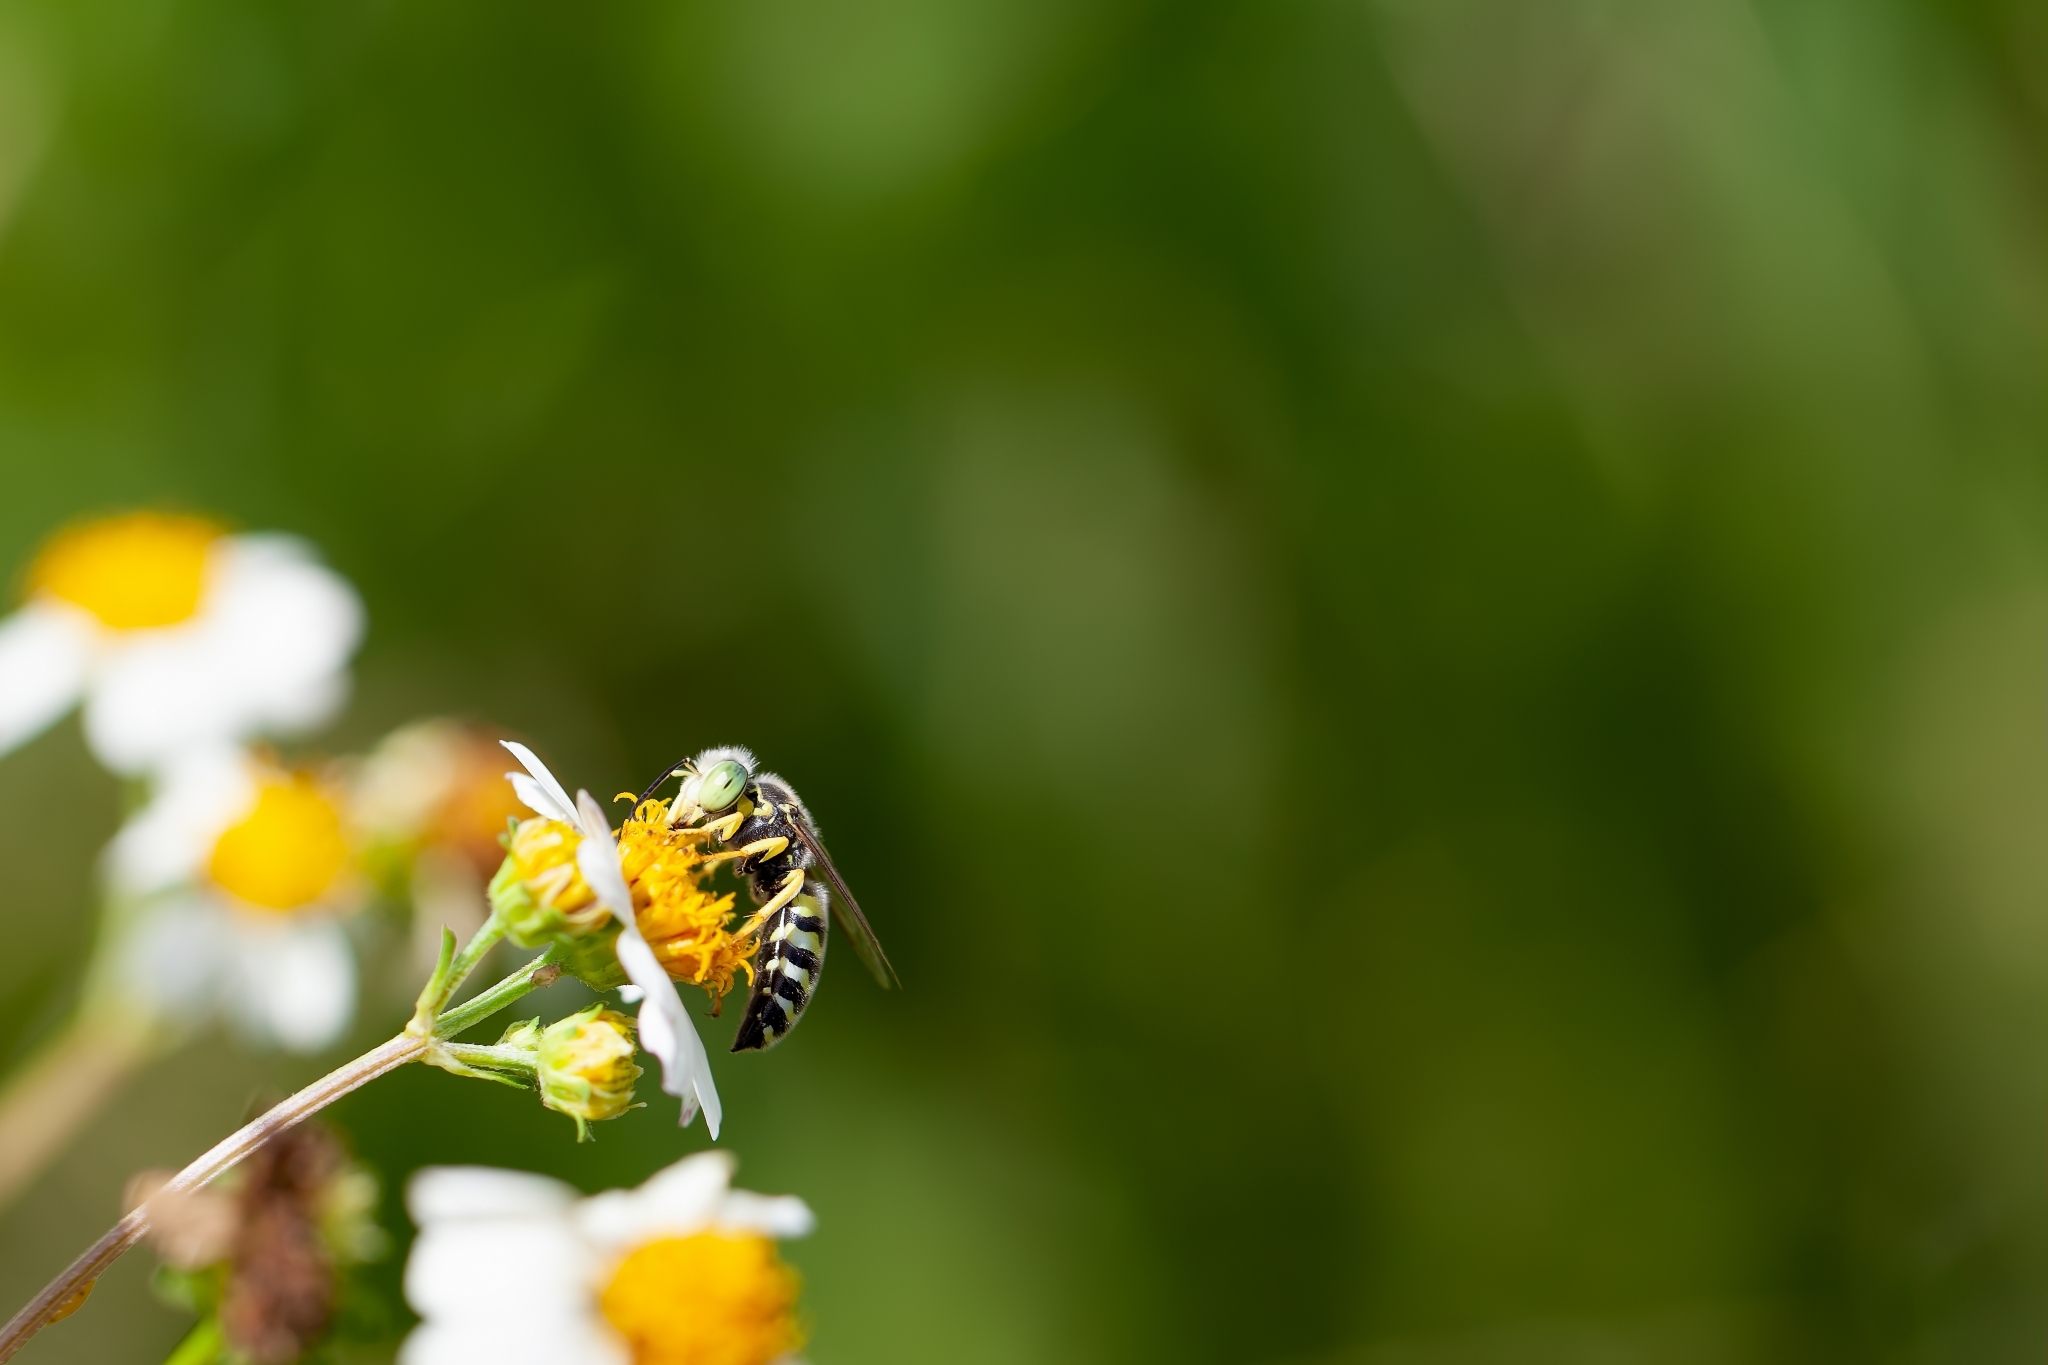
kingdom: Animalia
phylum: Arthropoda
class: Insecta
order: Hymenoptera
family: Crabronidae
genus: Bembix
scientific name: Bembix
